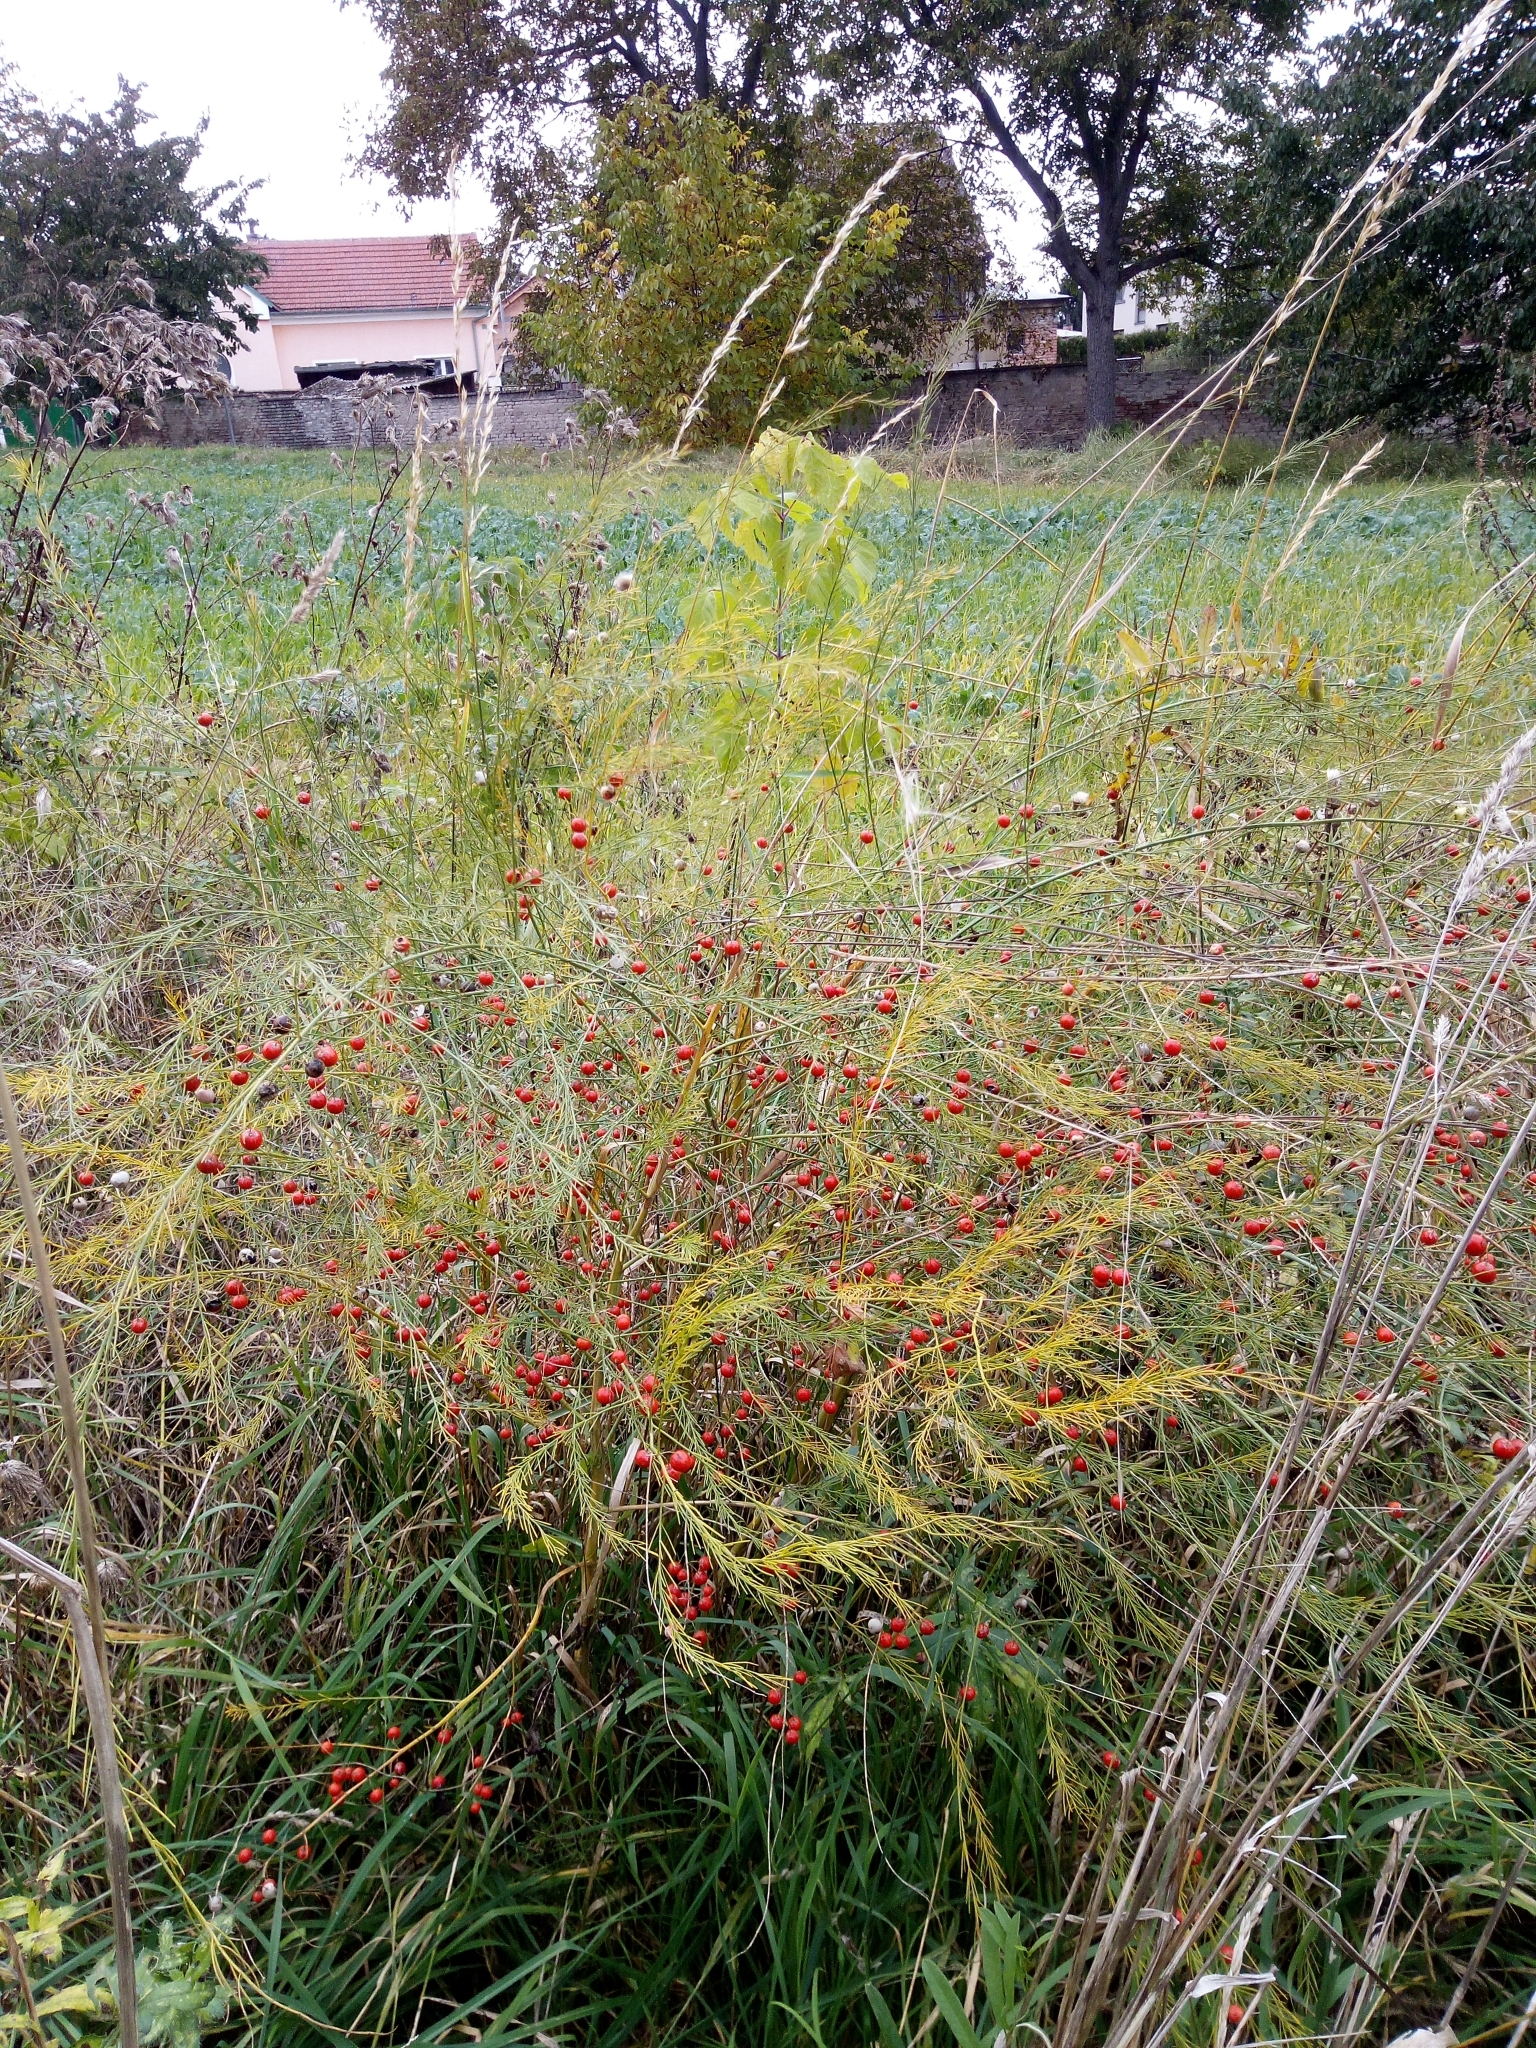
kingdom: Plantae
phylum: Tracheophyta
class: Liliopsida
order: Asparagales
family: Asparagaceae
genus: Asparagus
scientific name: Asparagus officinalis
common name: Garden asparagus
